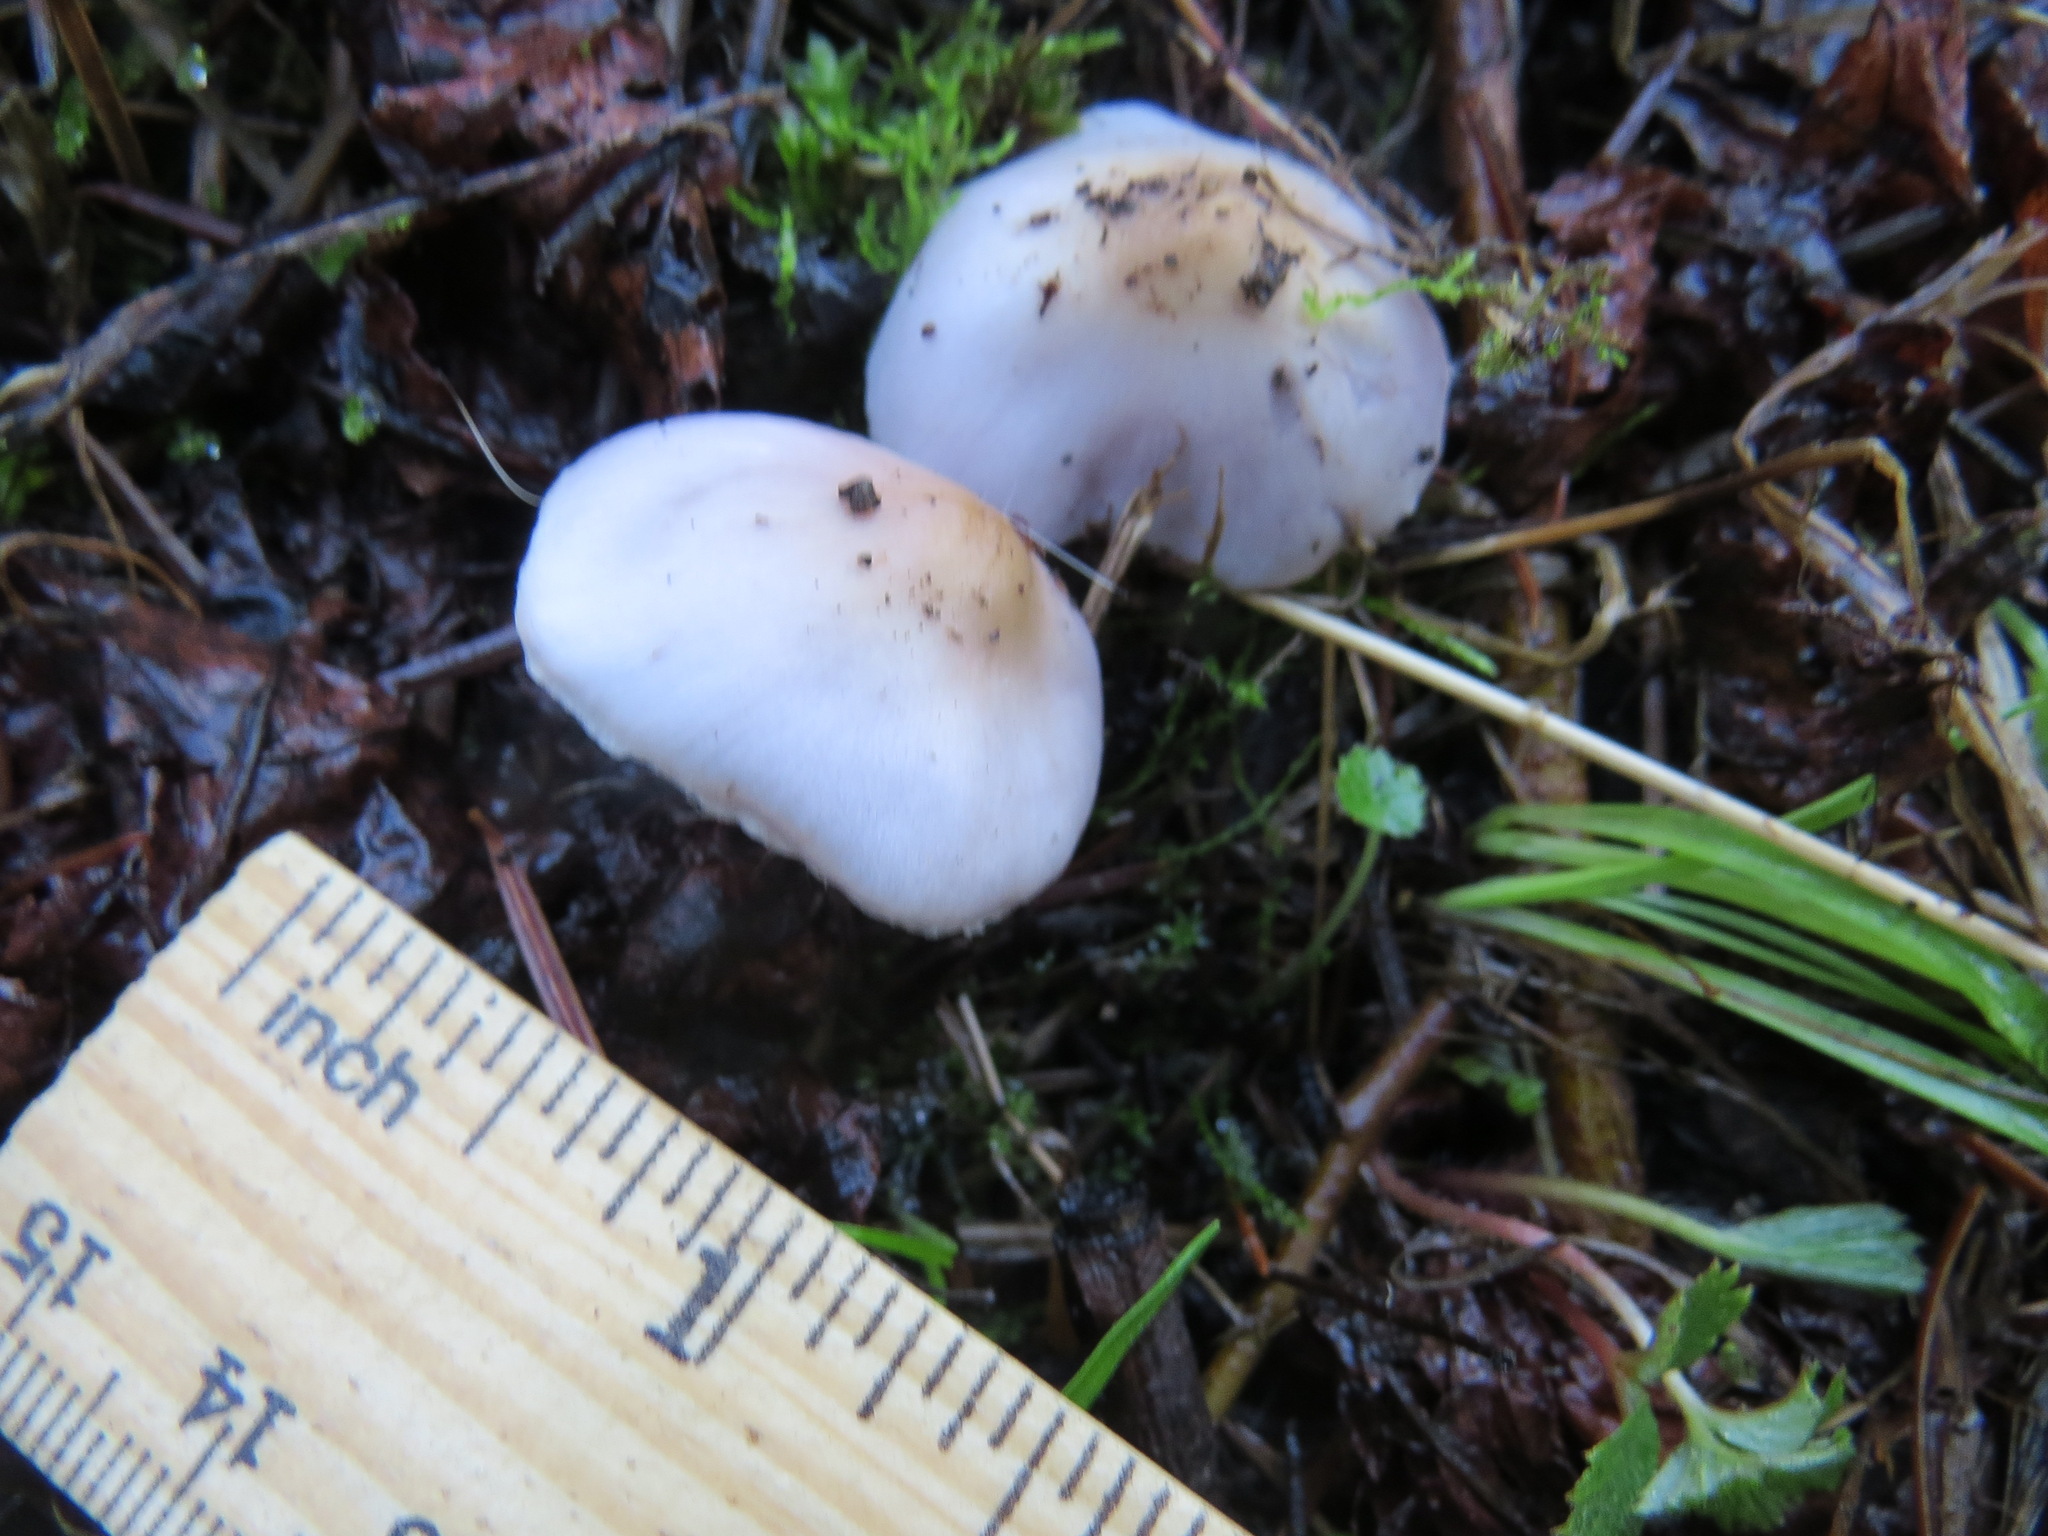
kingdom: Fungi
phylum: Basidiomycota
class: Agaricomycetes
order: Agaricales
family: Inocybaceae
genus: Inocybe
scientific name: Inocybe ionocephala
